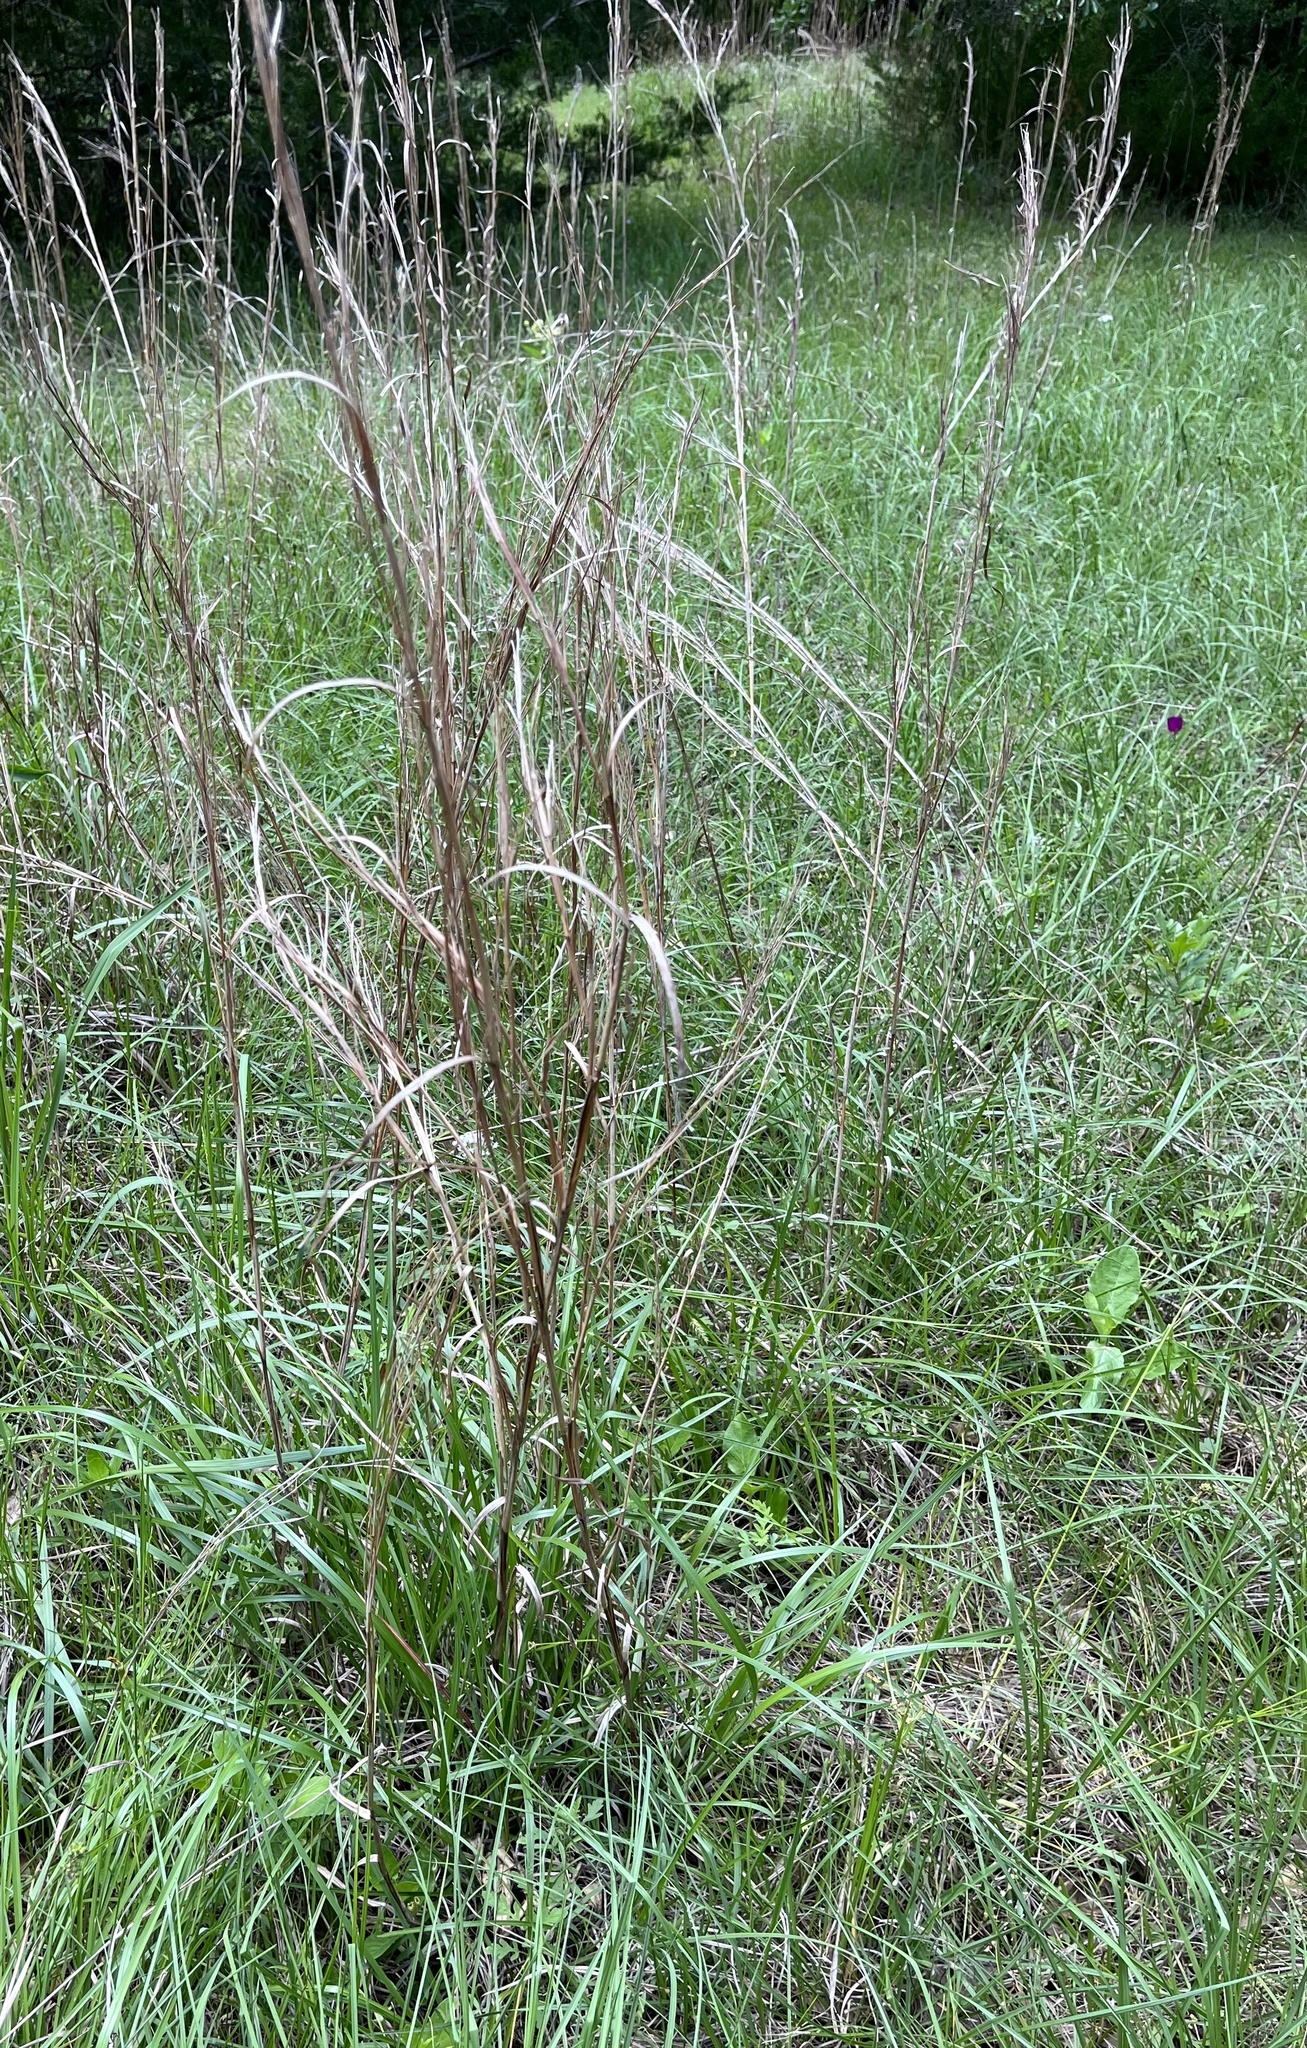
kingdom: Plantae
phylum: Tracheophyta
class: Liliopsida
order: Poales
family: Poaceae
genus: Schizachyrium
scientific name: Schizachyrium scoparium
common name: Little bluestem
